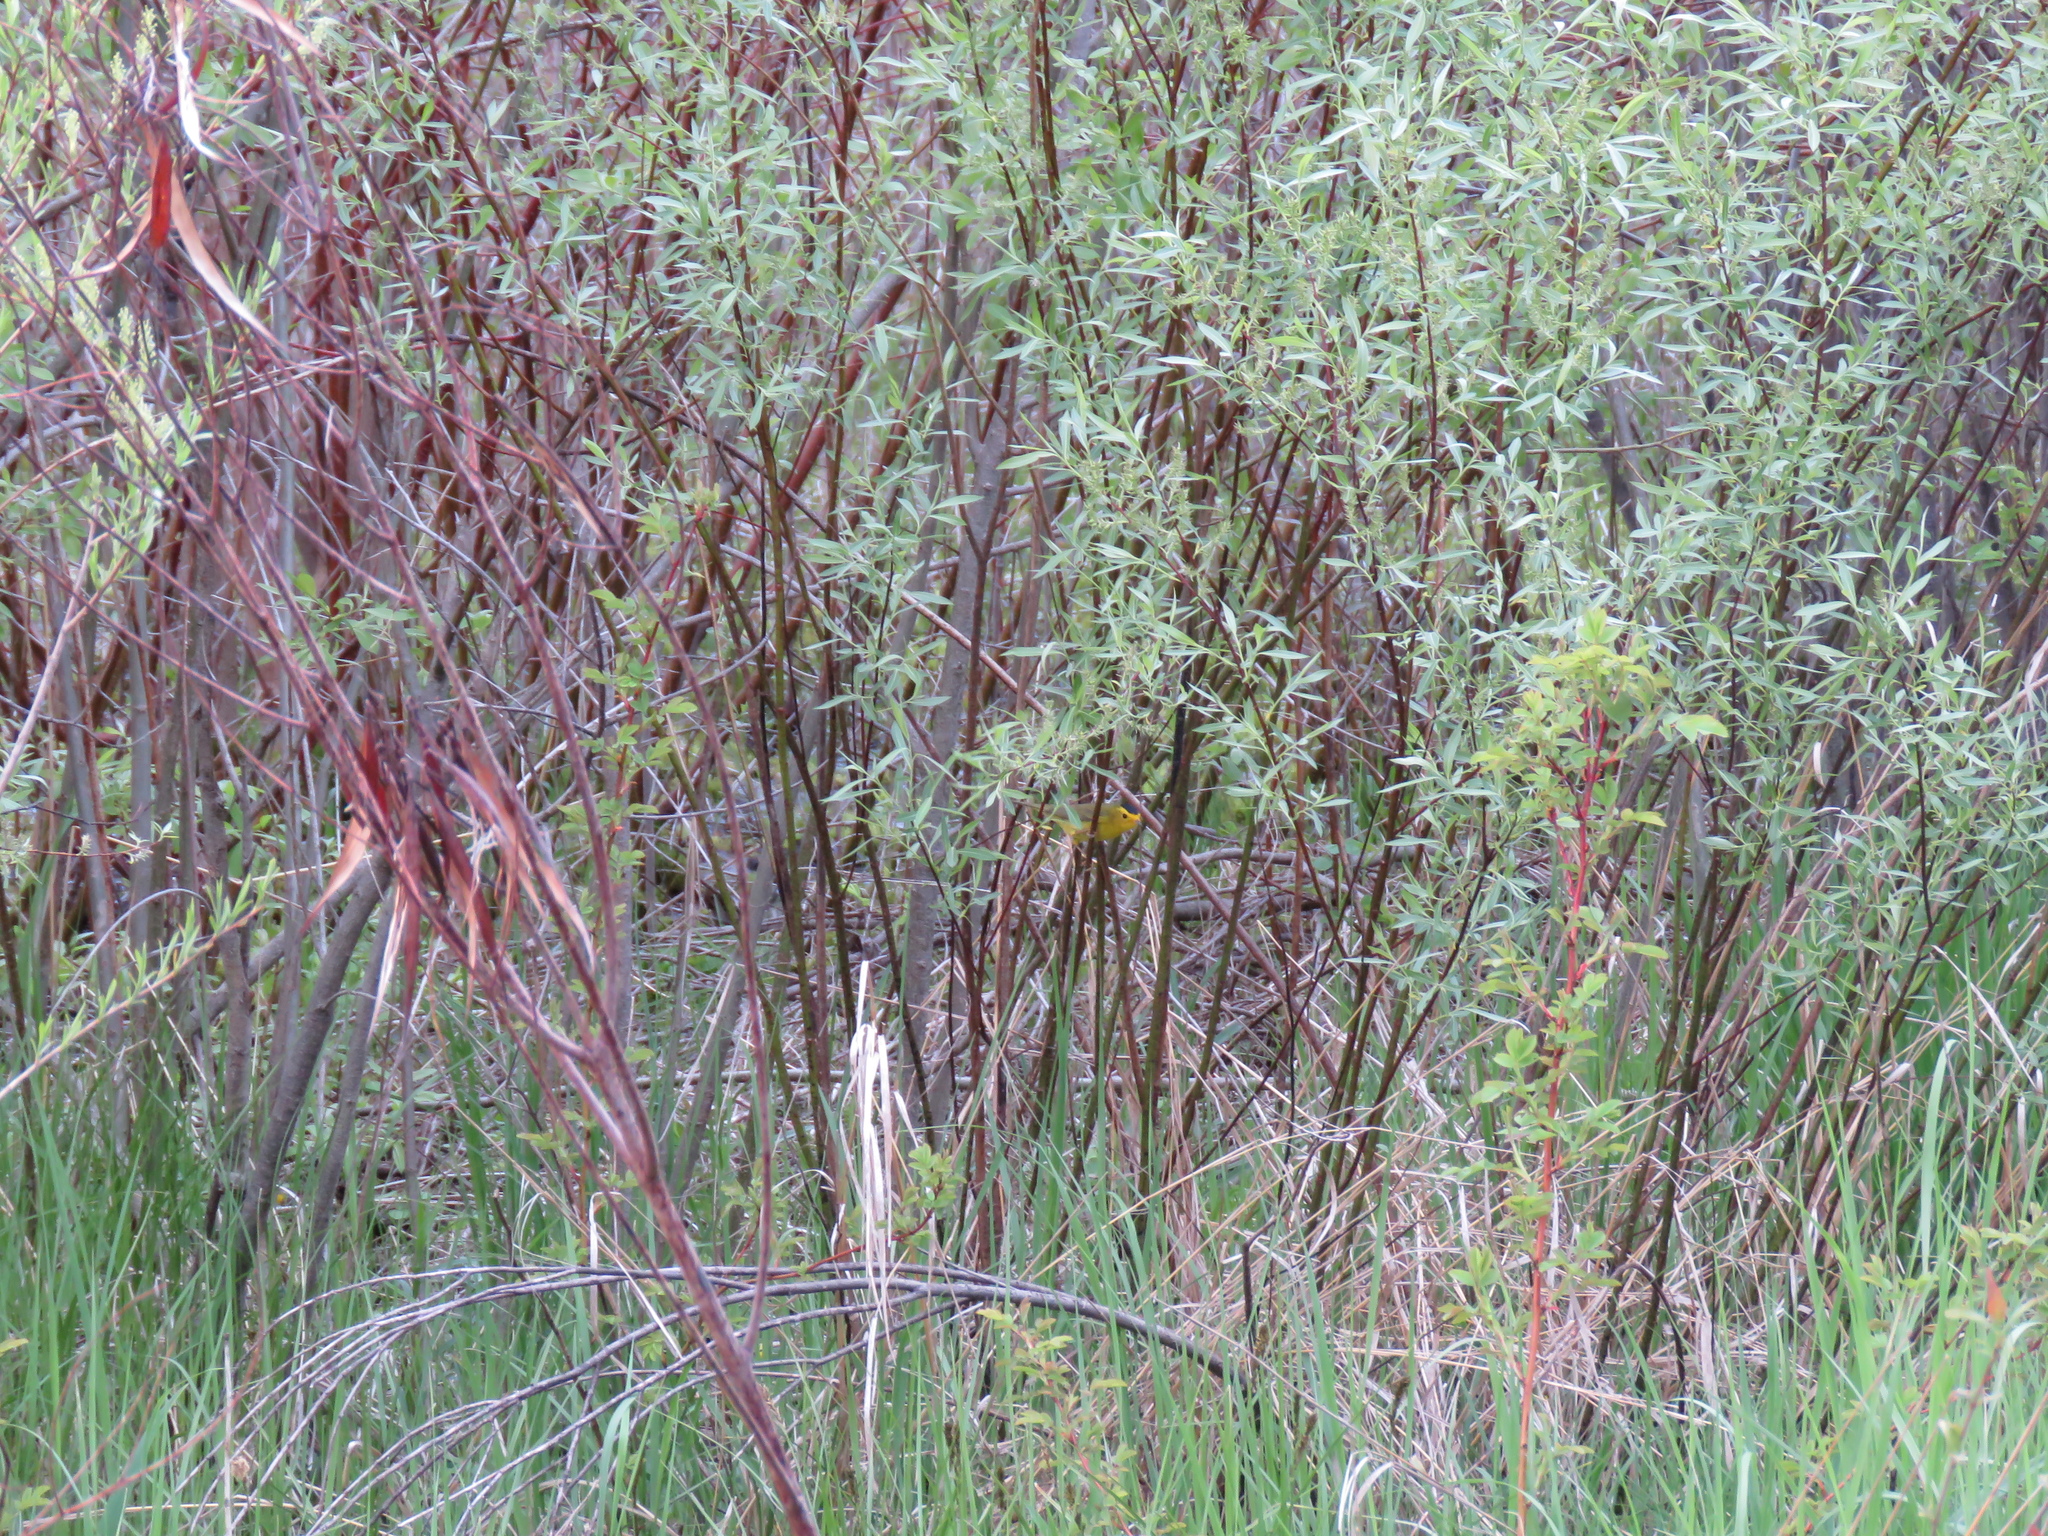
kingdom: Animalia
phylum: Chordata
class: Aves
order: Passeriformes
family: Parulidae
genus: Cardellina
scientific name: Cardellina pusilla
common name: Wilson's warbler
